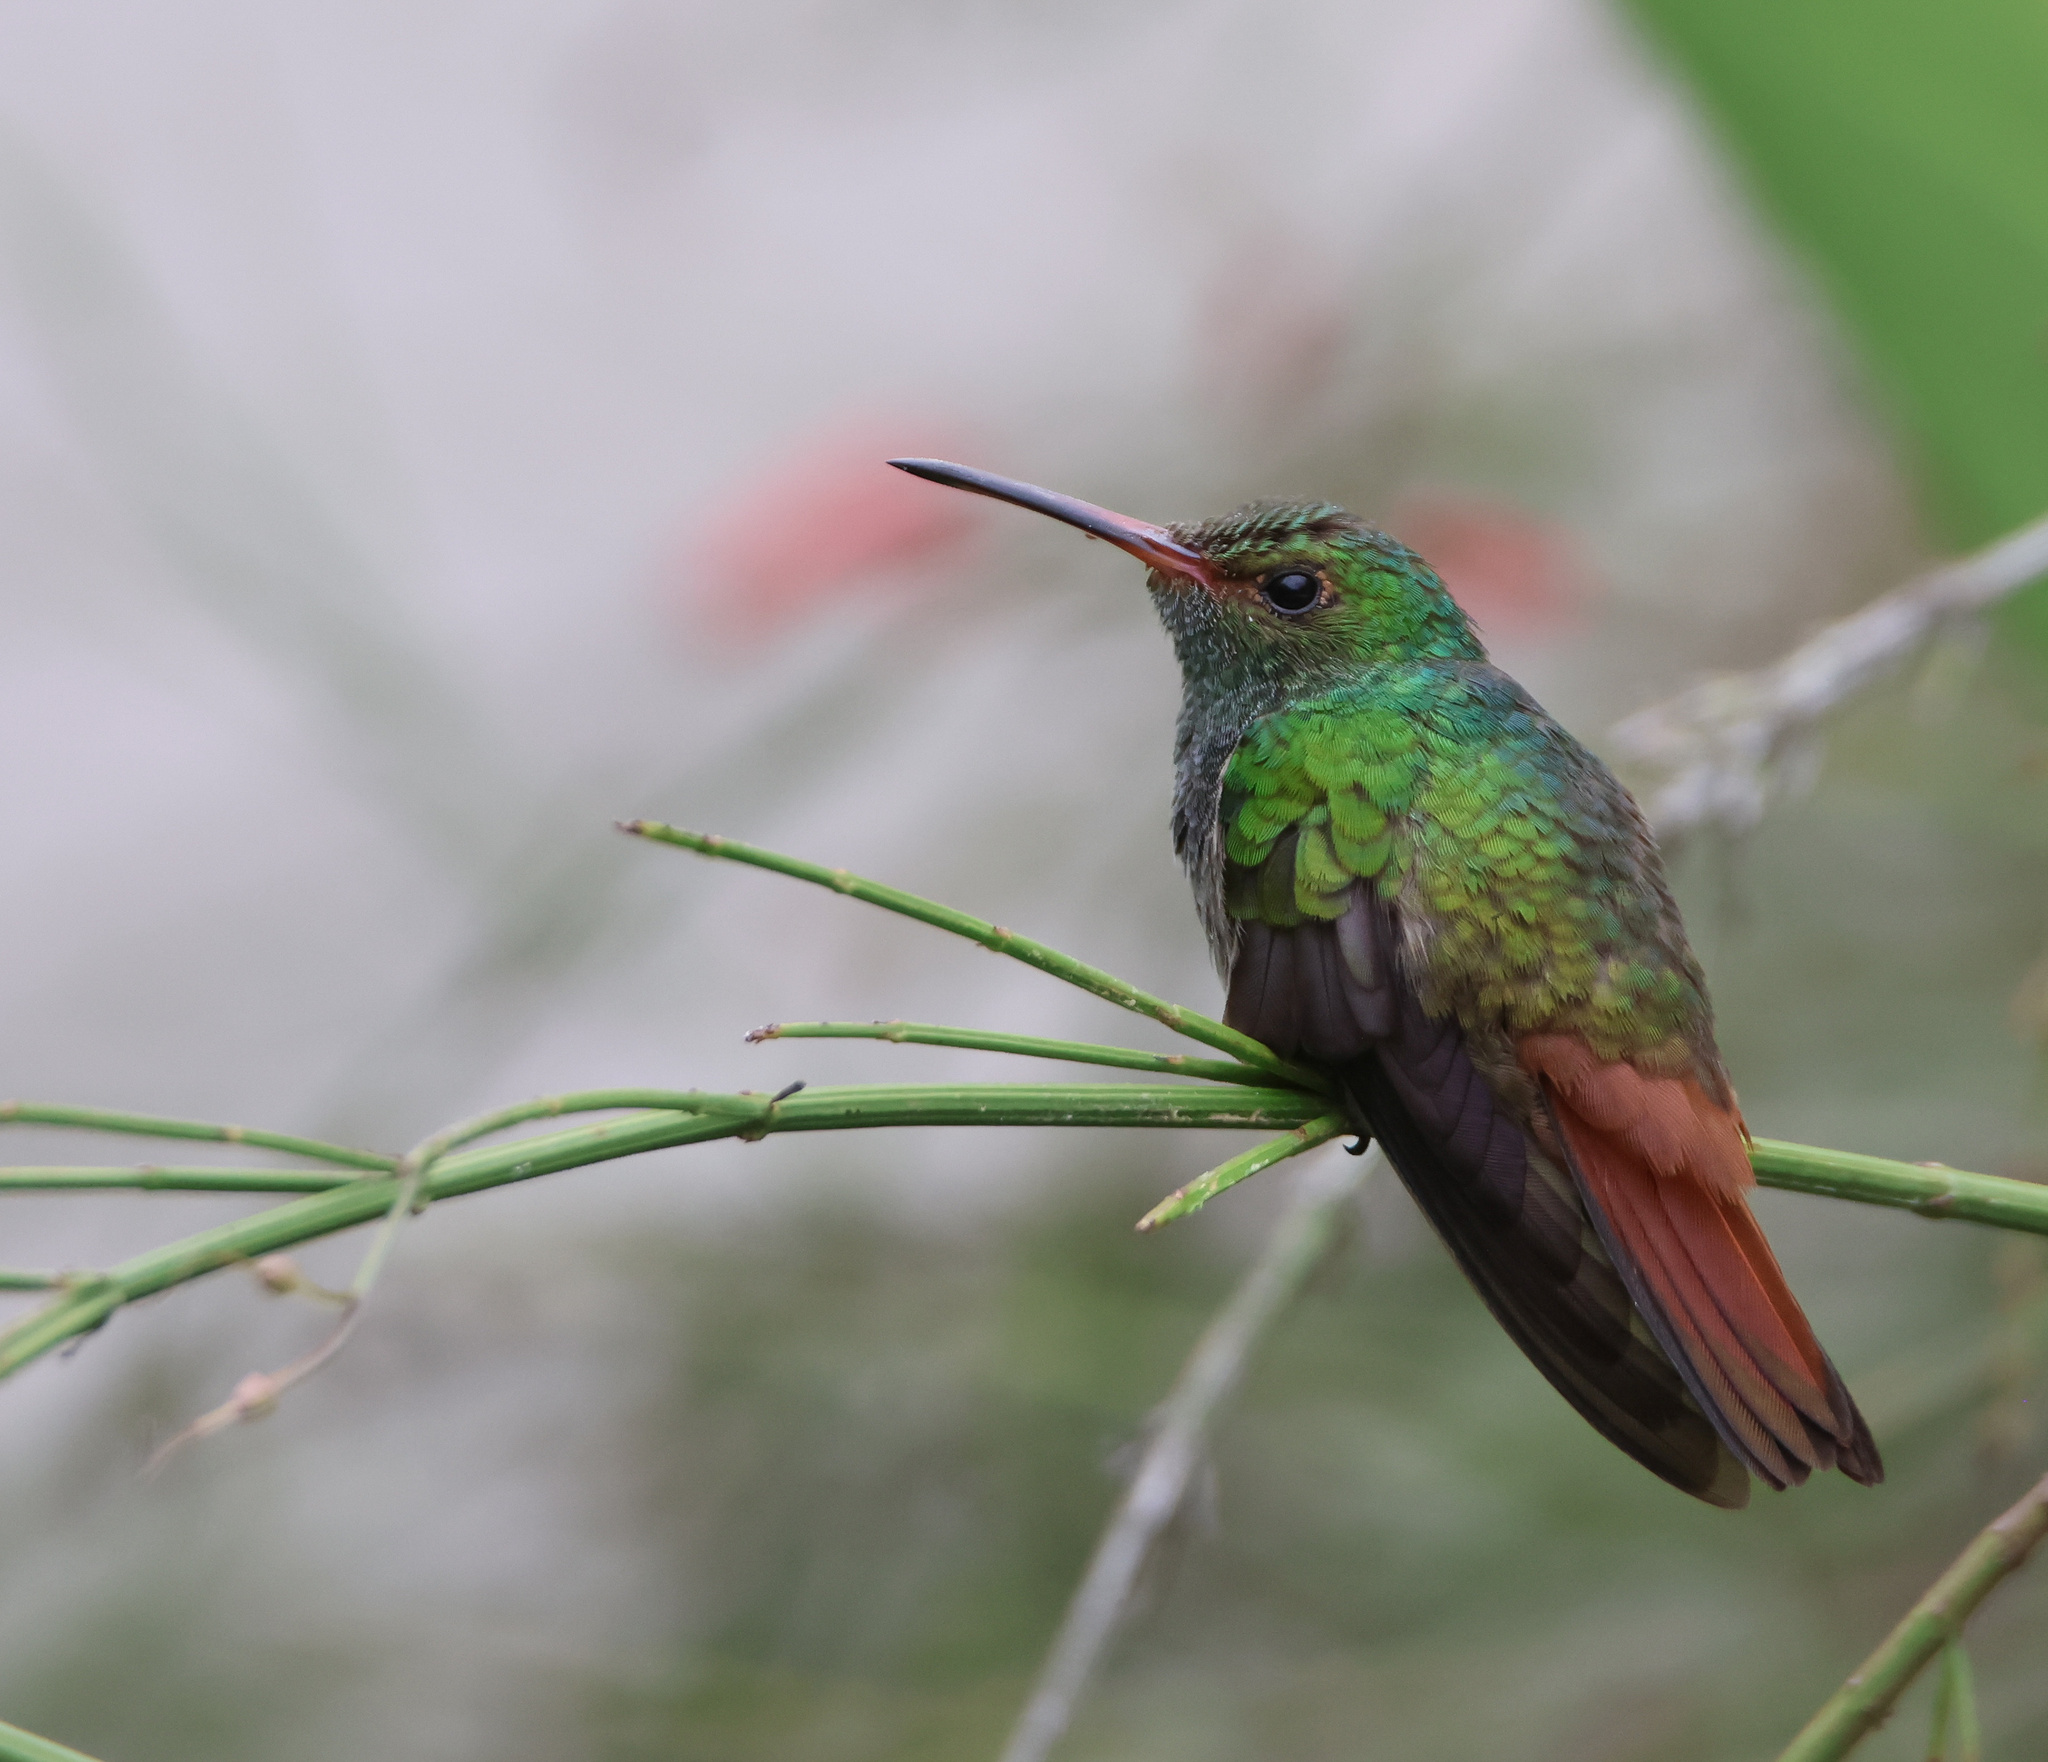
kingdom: Animalia
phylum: Chordata
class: Aves
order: Apodiformes
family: Trochilidae
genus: Amazilia
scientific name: Amazilia tzacatl
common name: Rufous-tailed hummingbird
